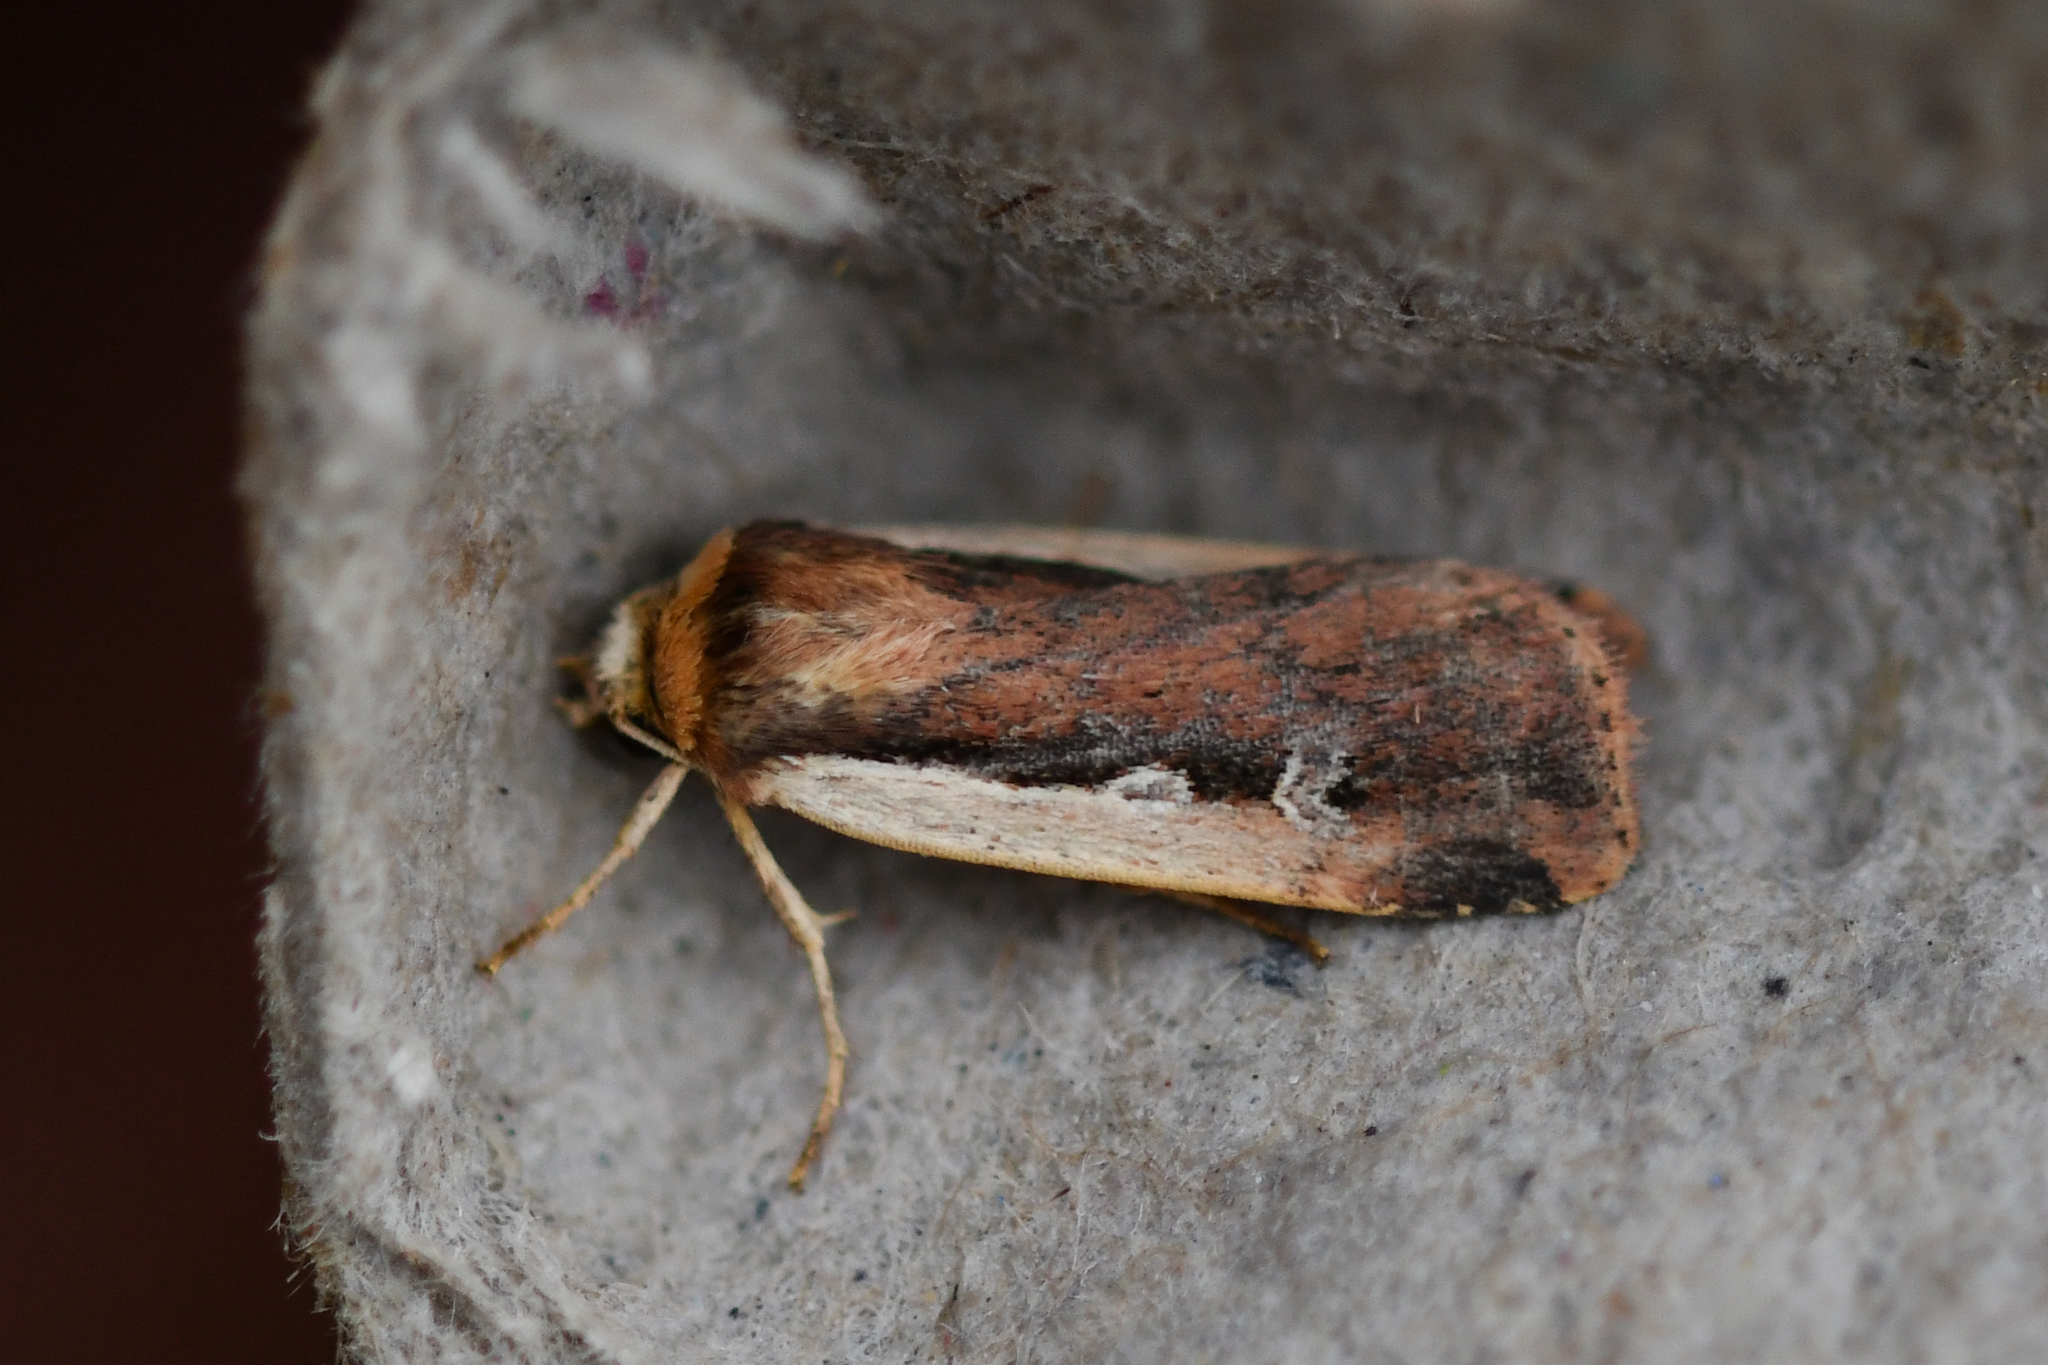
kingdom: Animalia
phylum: Arthropoda
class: Insecta
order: Lepidoptera
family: Noctuidae
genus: Ochropleura
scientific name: Ochropleura plecta
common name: Flame shoulder
